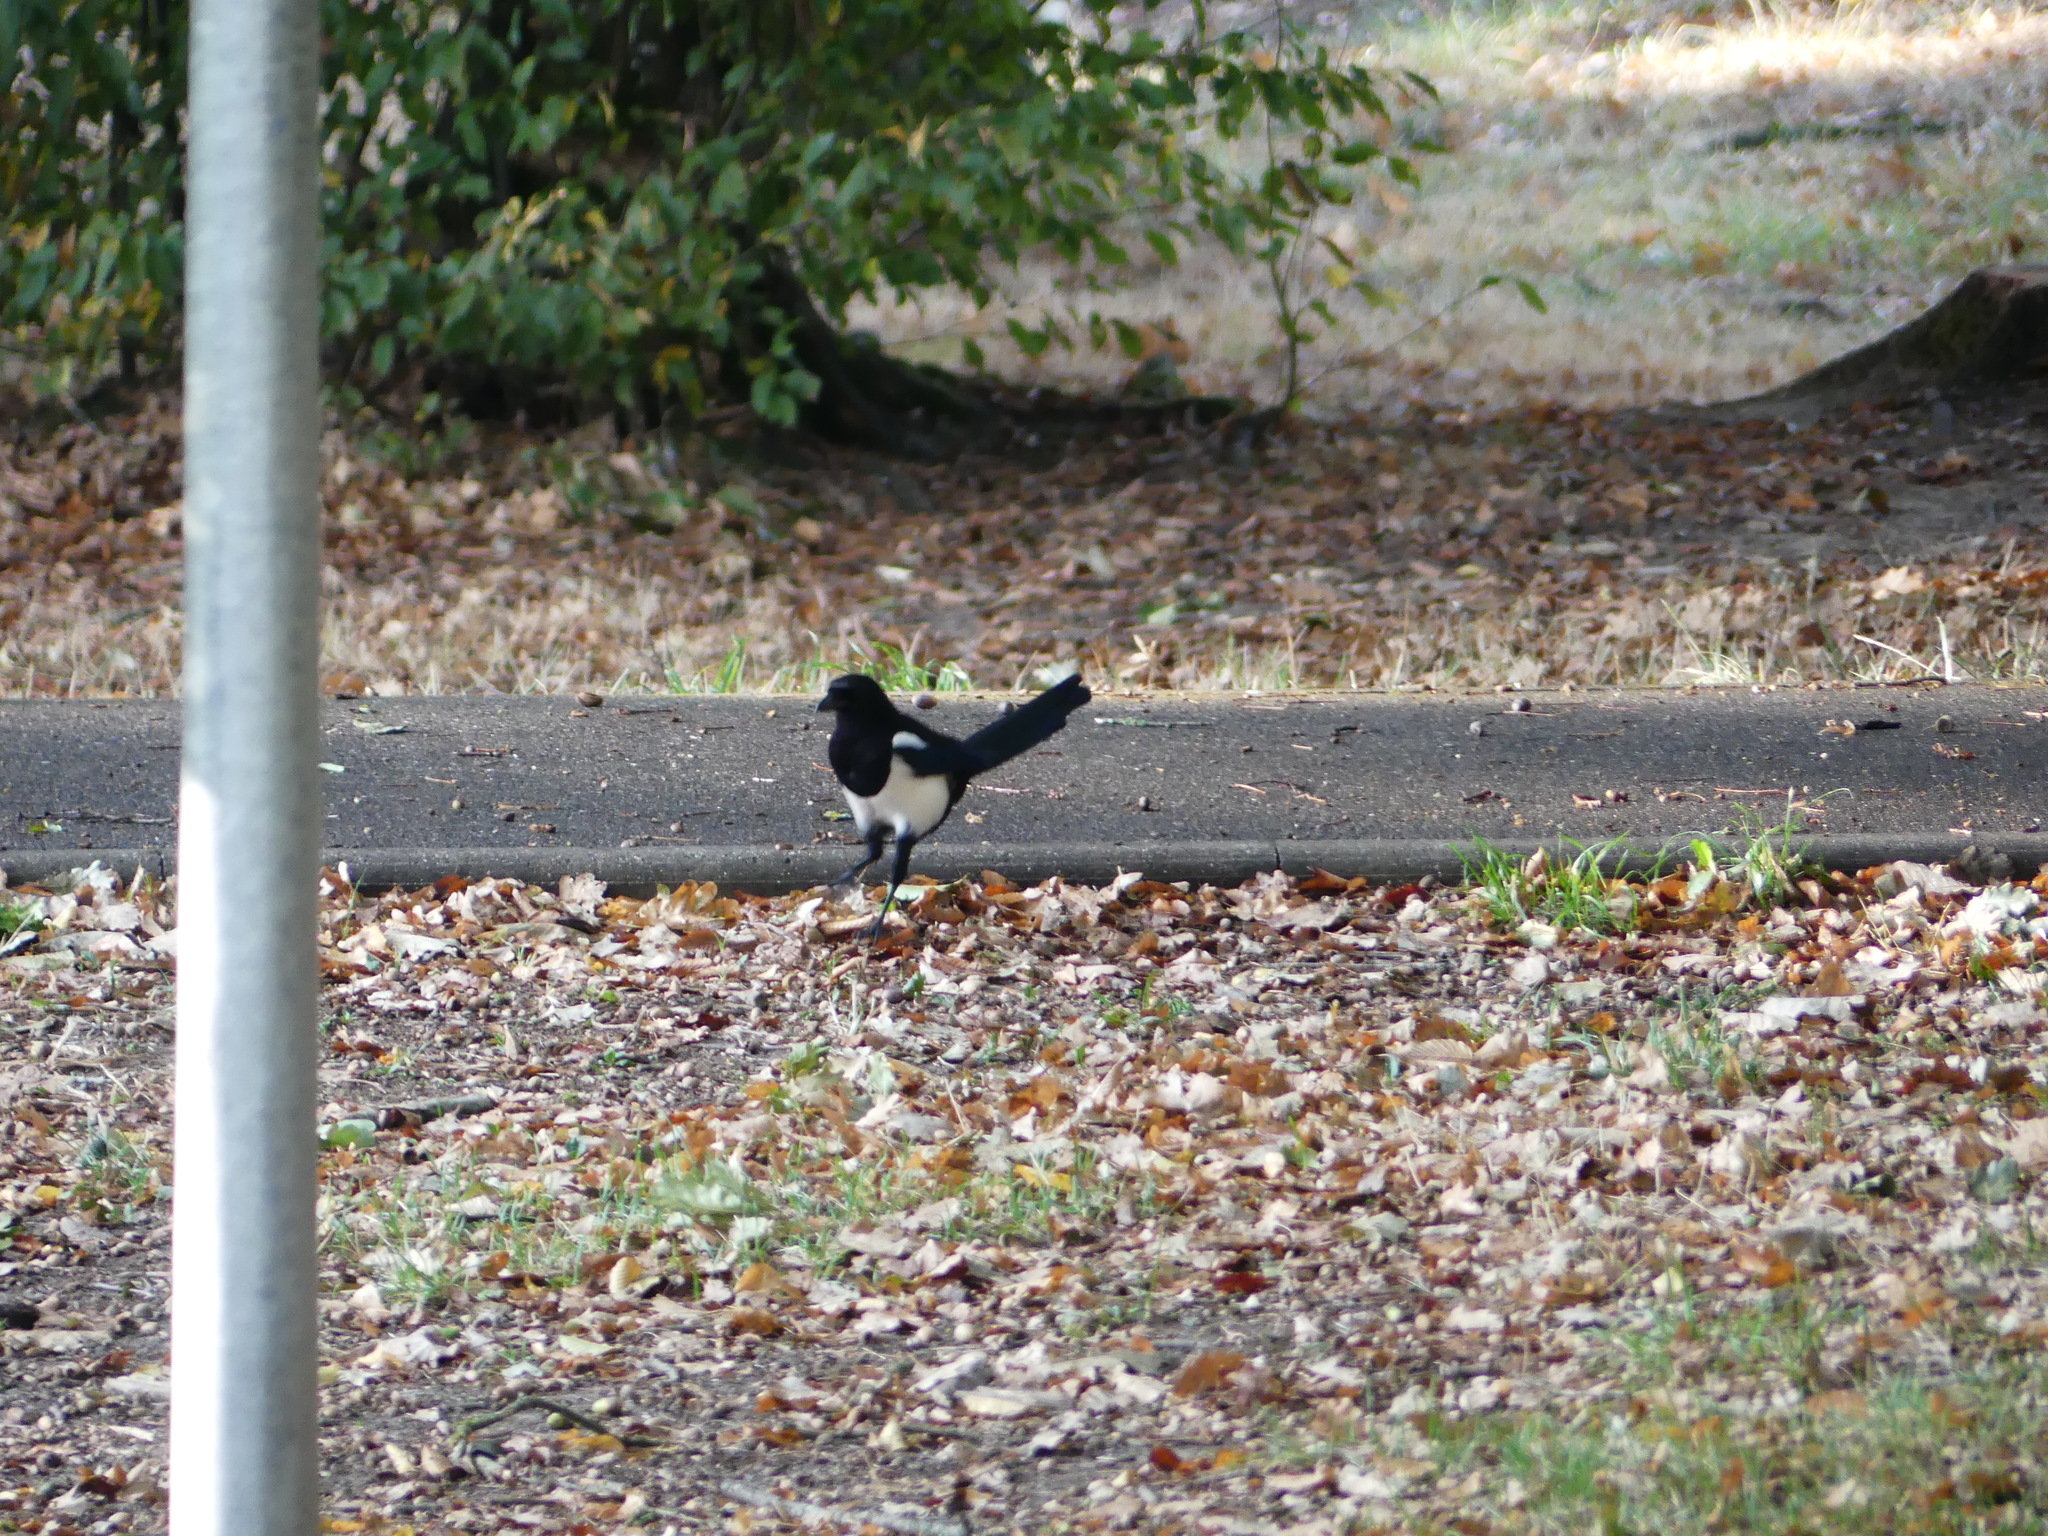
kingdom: Animalia
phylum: Chordata
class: Aves
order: Passeriformes
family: Corvidae
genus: Pica
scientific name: Pica pica
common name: Eurasian magpie
